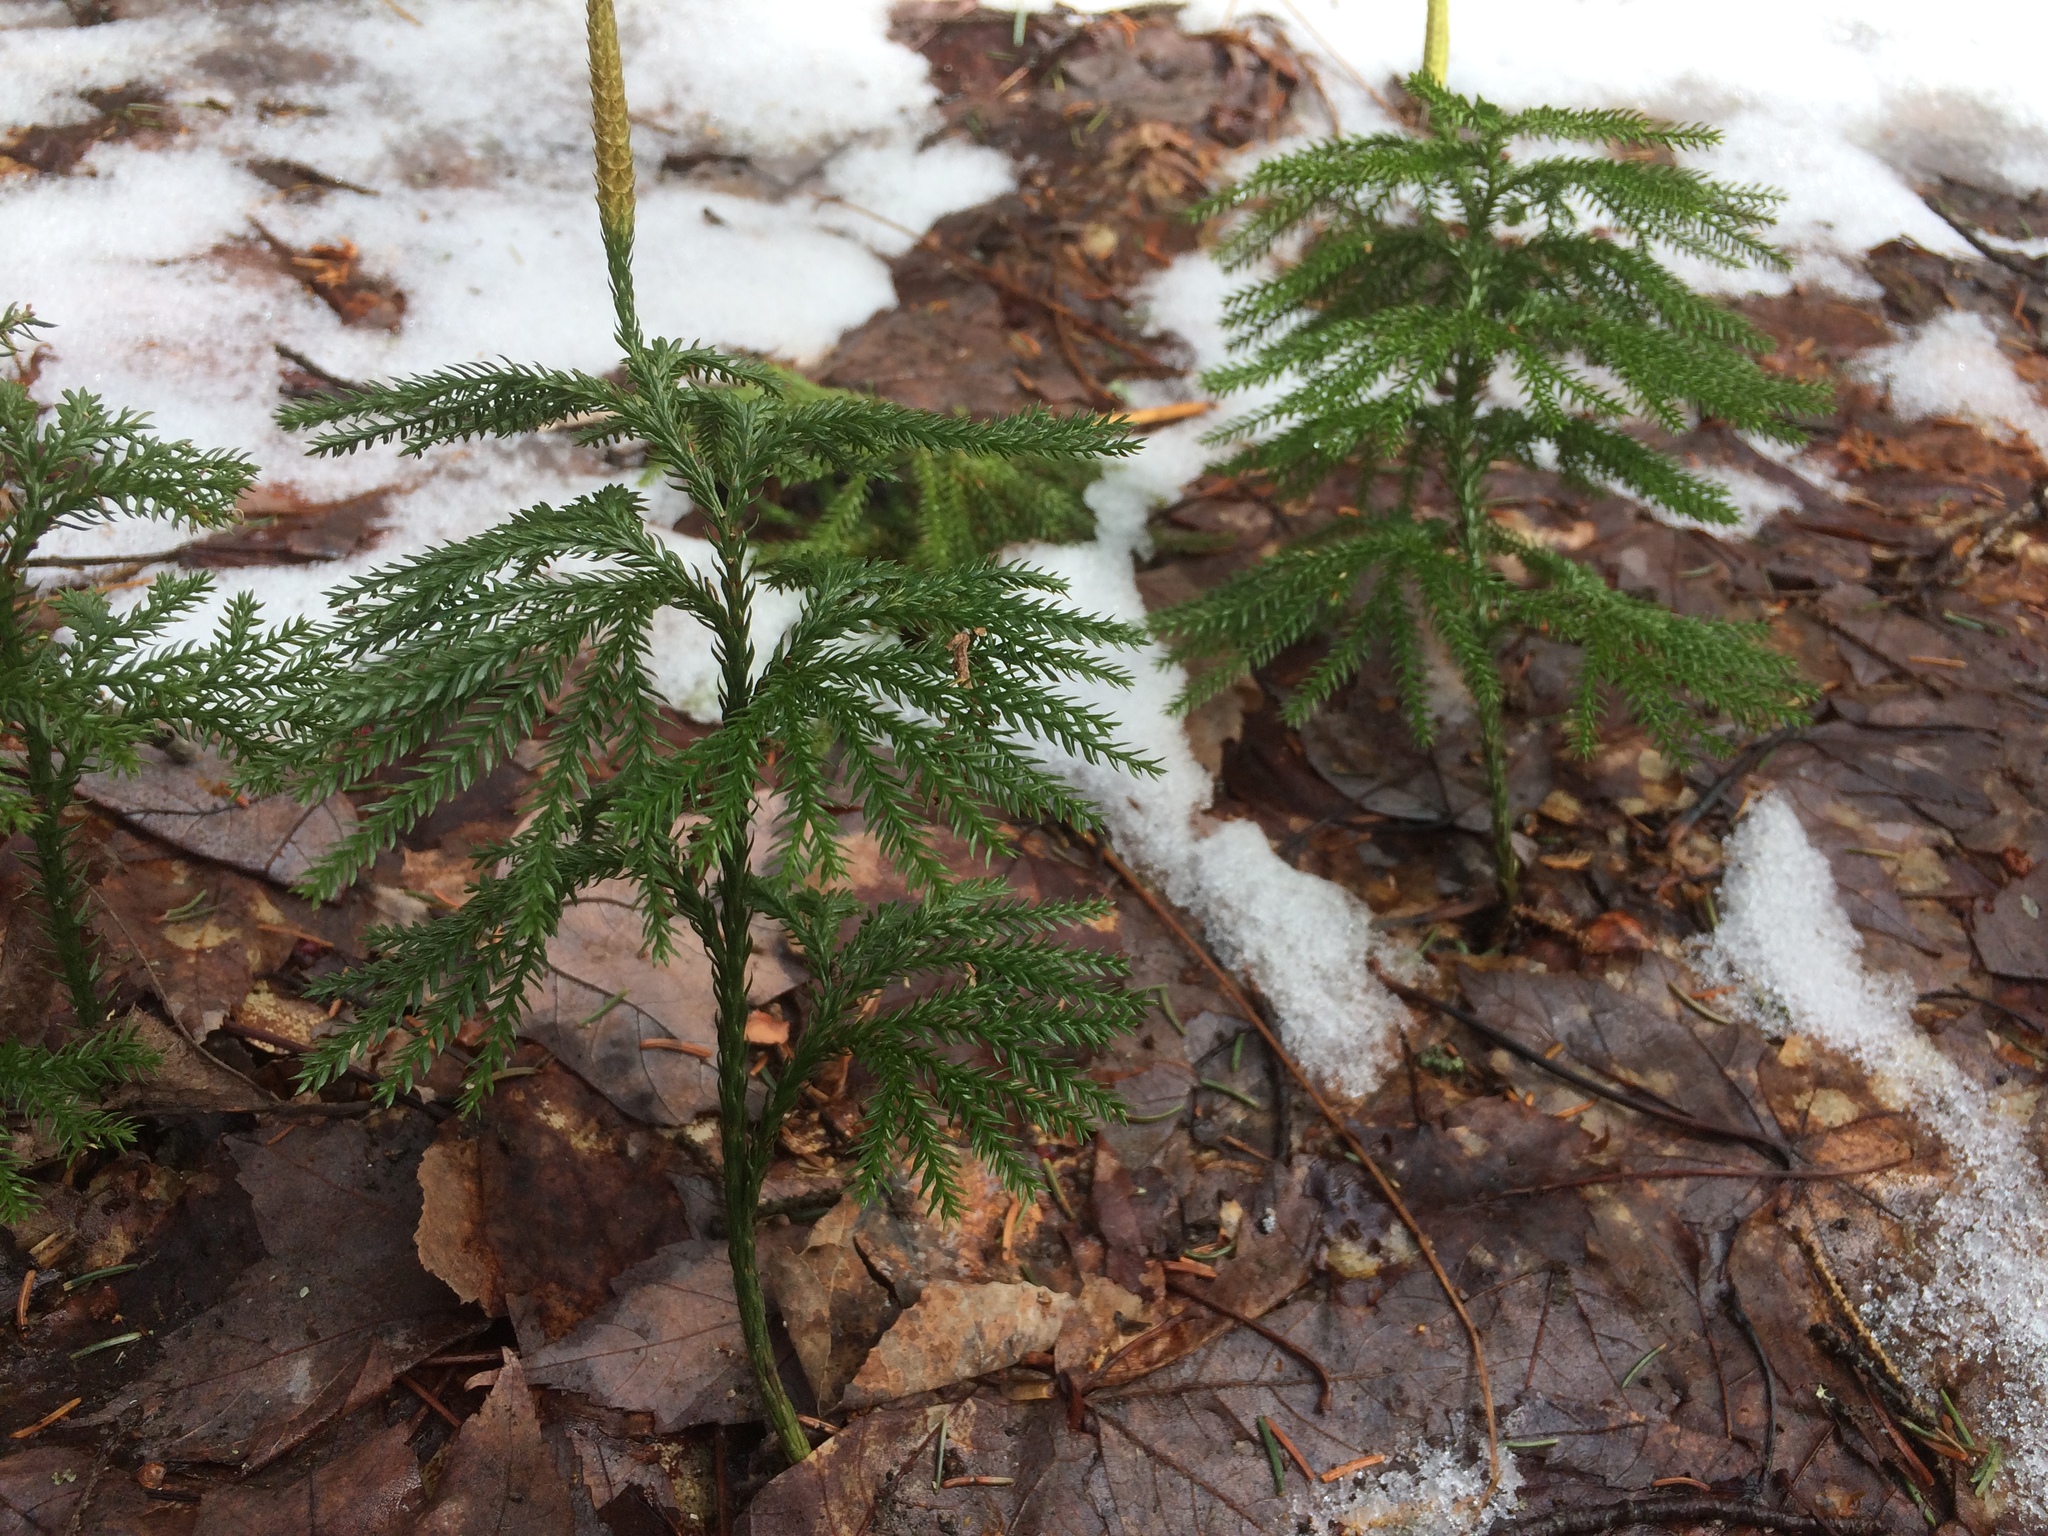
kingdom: Plantae
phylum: Tracheophyta
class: Lycopodiopsida
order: Lycopodiales
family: Lycopodiaceae
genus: Dendrolycopodium
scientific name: Dendrolycopodium obscurum
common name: Common ground-pine
